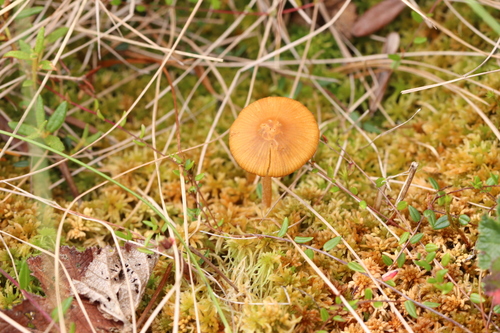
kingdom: Fungi
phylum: Basidiomycota
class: Agaricomycetes
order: Agaricales
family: Hymenogastraceae
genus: Galerina
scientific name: Galerina tibiicystis
